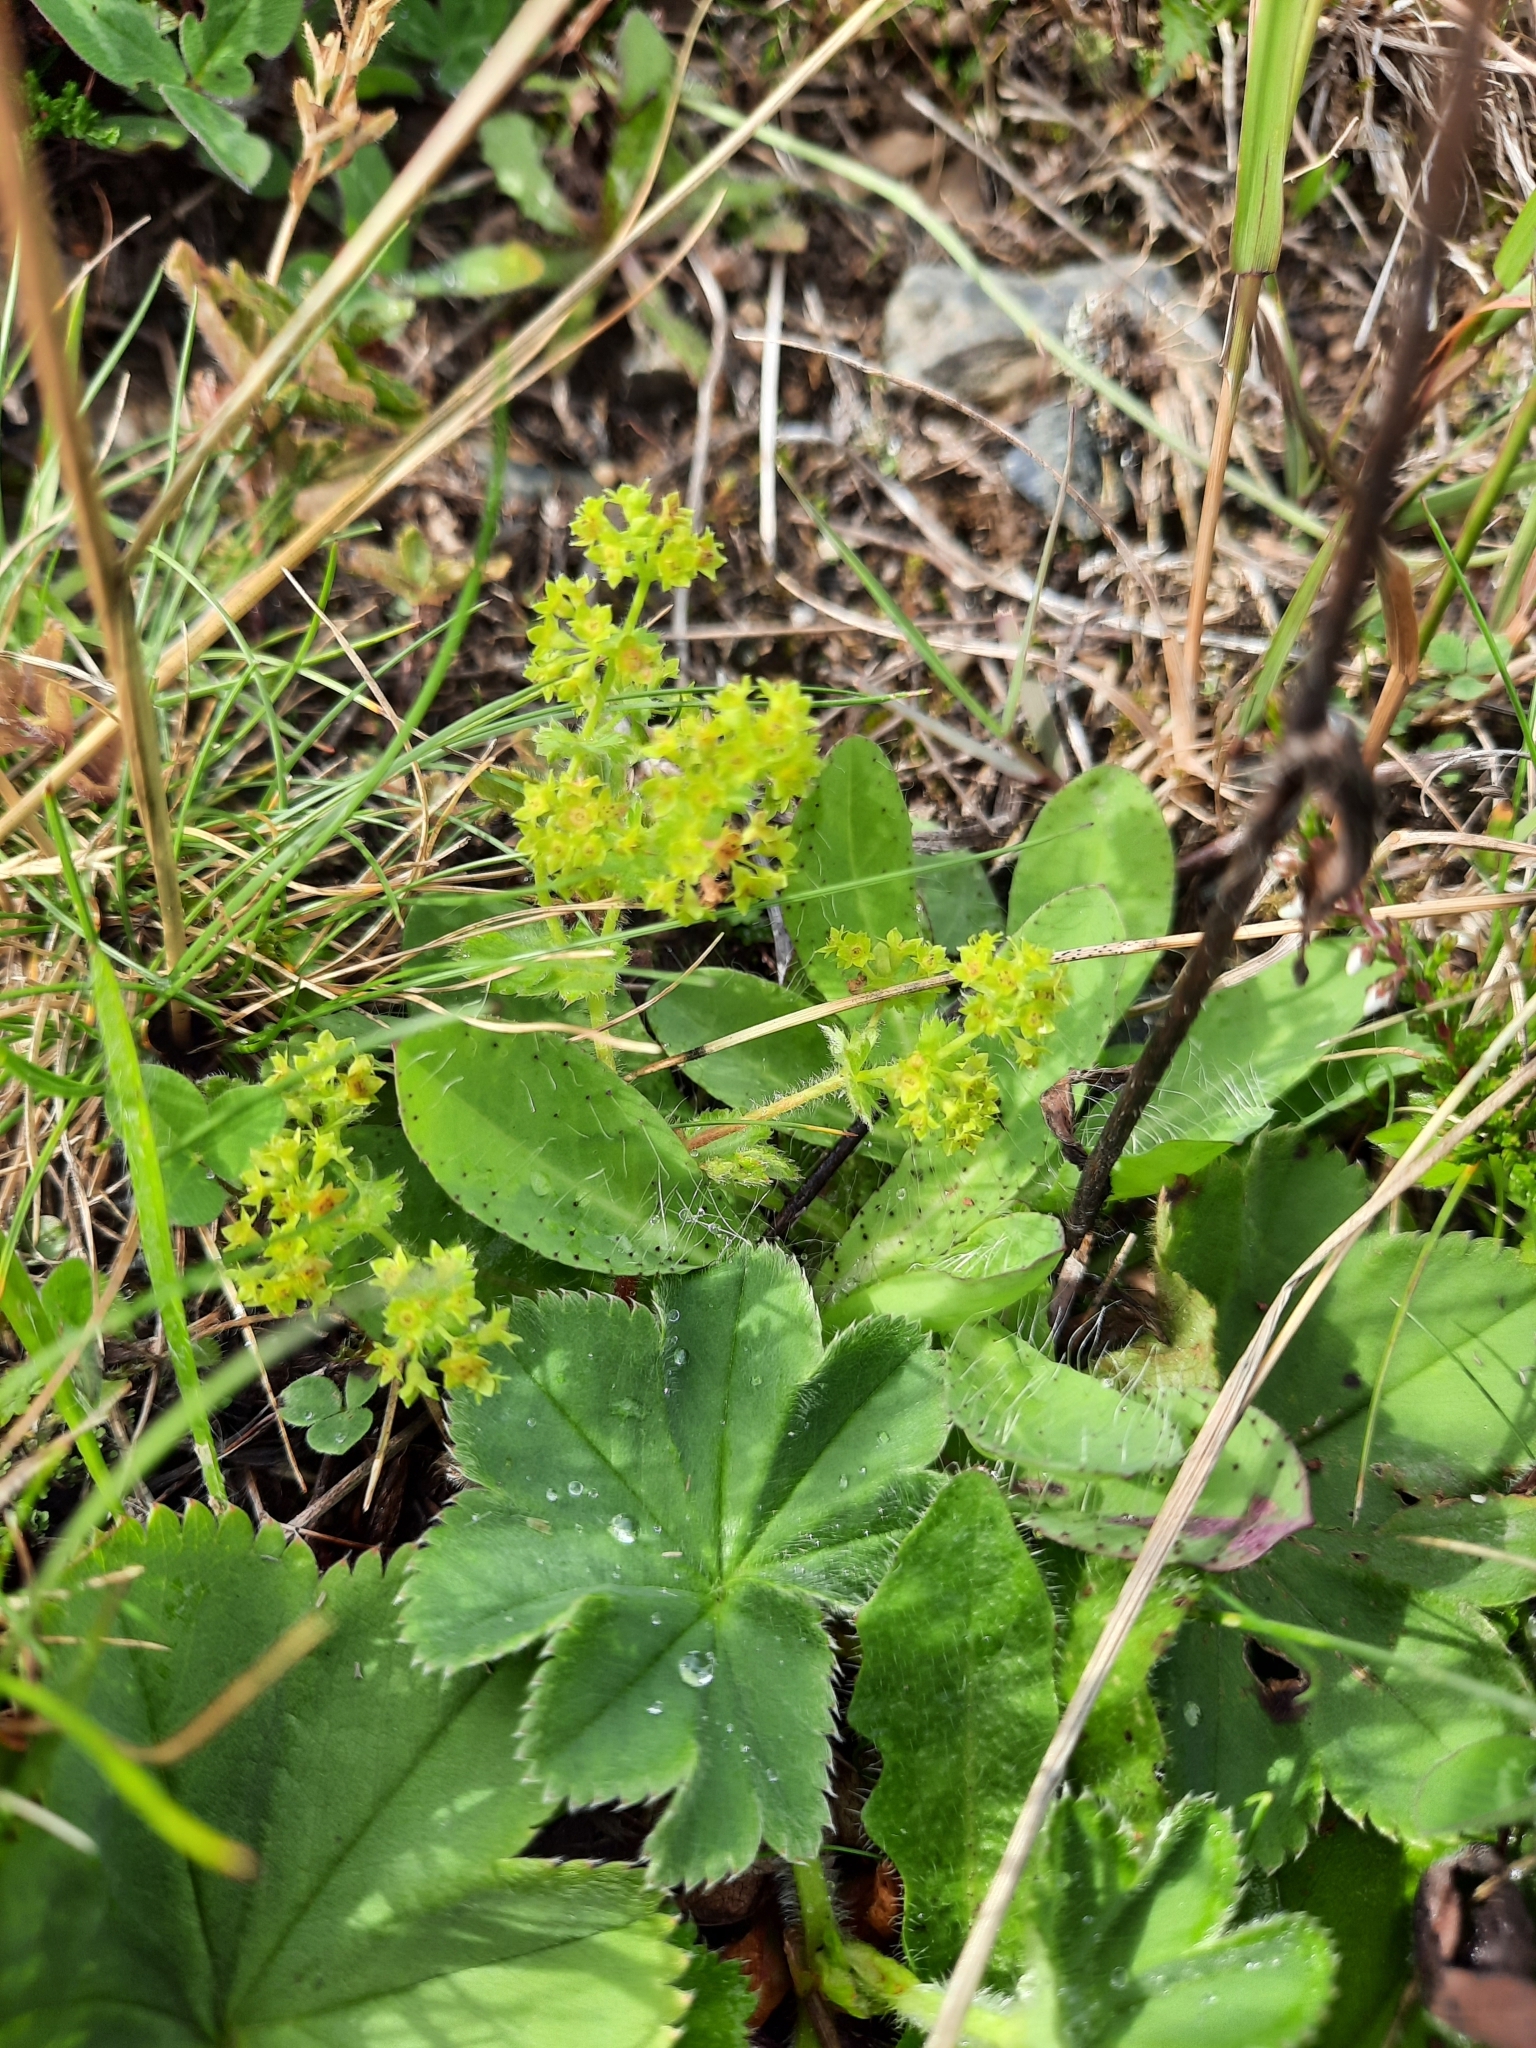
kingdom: Plantae
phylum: Tracheophyta
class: Magnoliopsida
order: Rosales
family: Rosaceae
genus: Alchemilla
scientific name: Alchemilla monticola
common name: Hairy lady's mantle
